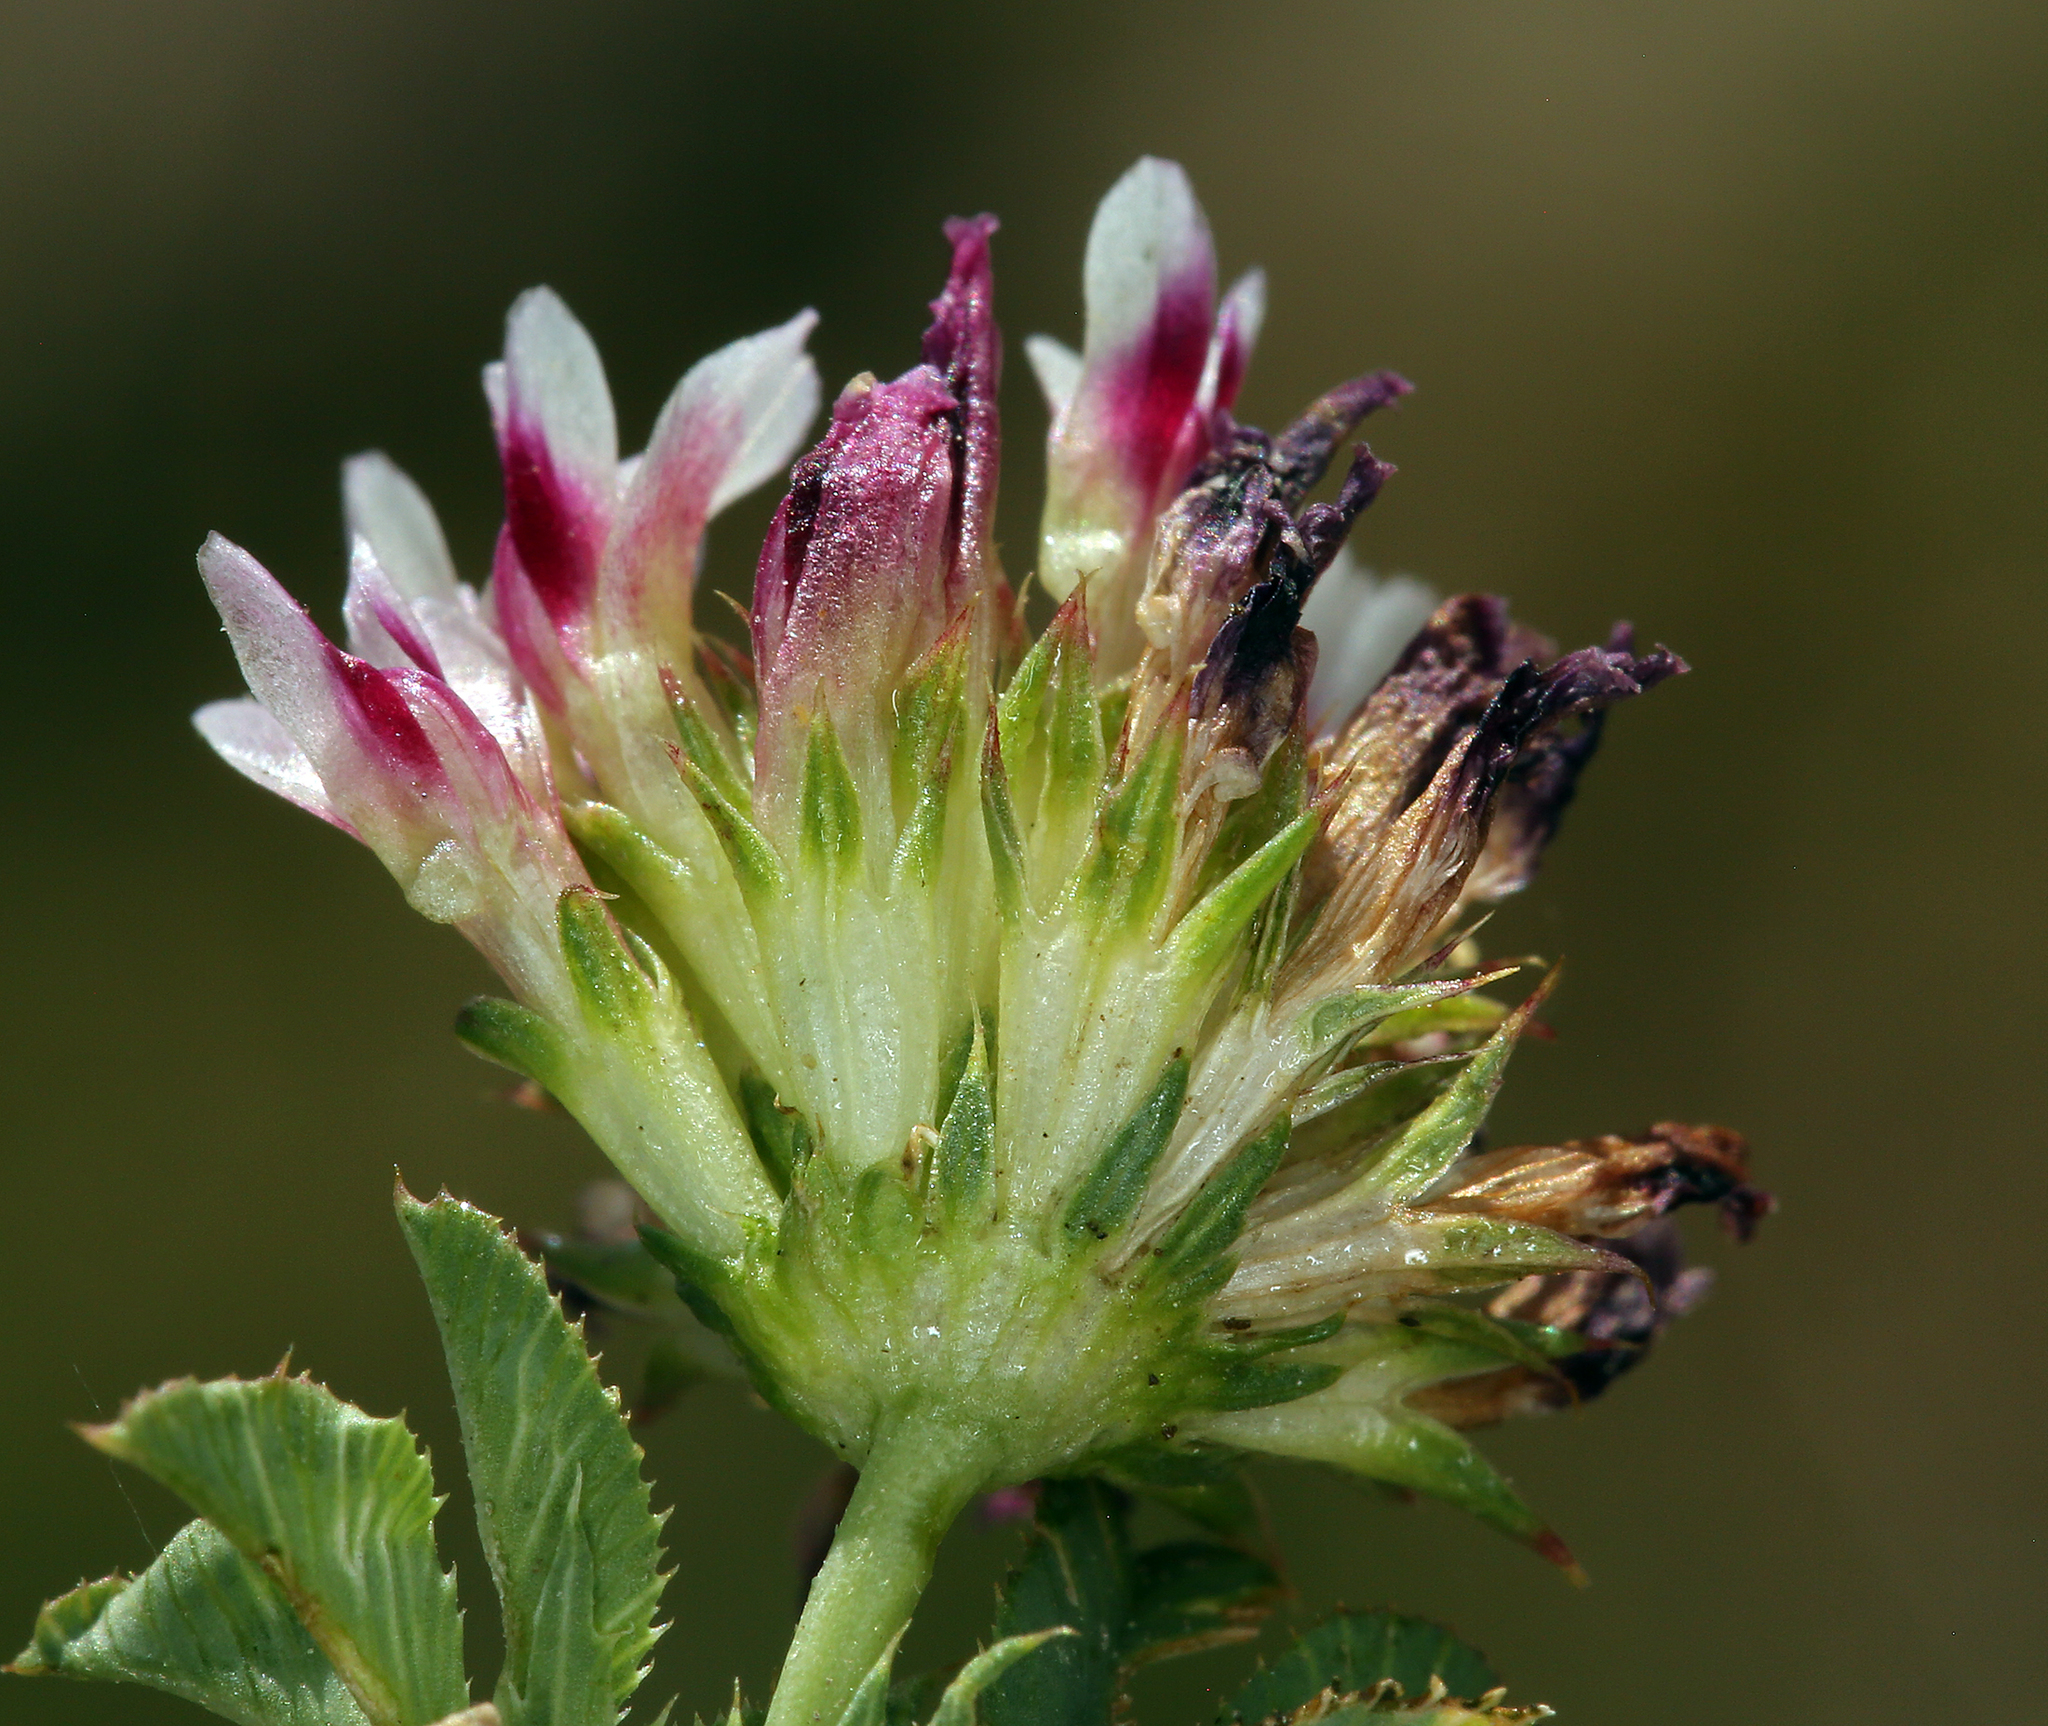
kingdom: Plantae
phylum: Tracheophyta
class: Magnoliopsida
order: Fabales
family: Fabaceae
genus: Trifolium
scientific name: Trifolium wormskioldii
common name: Springbank clover
